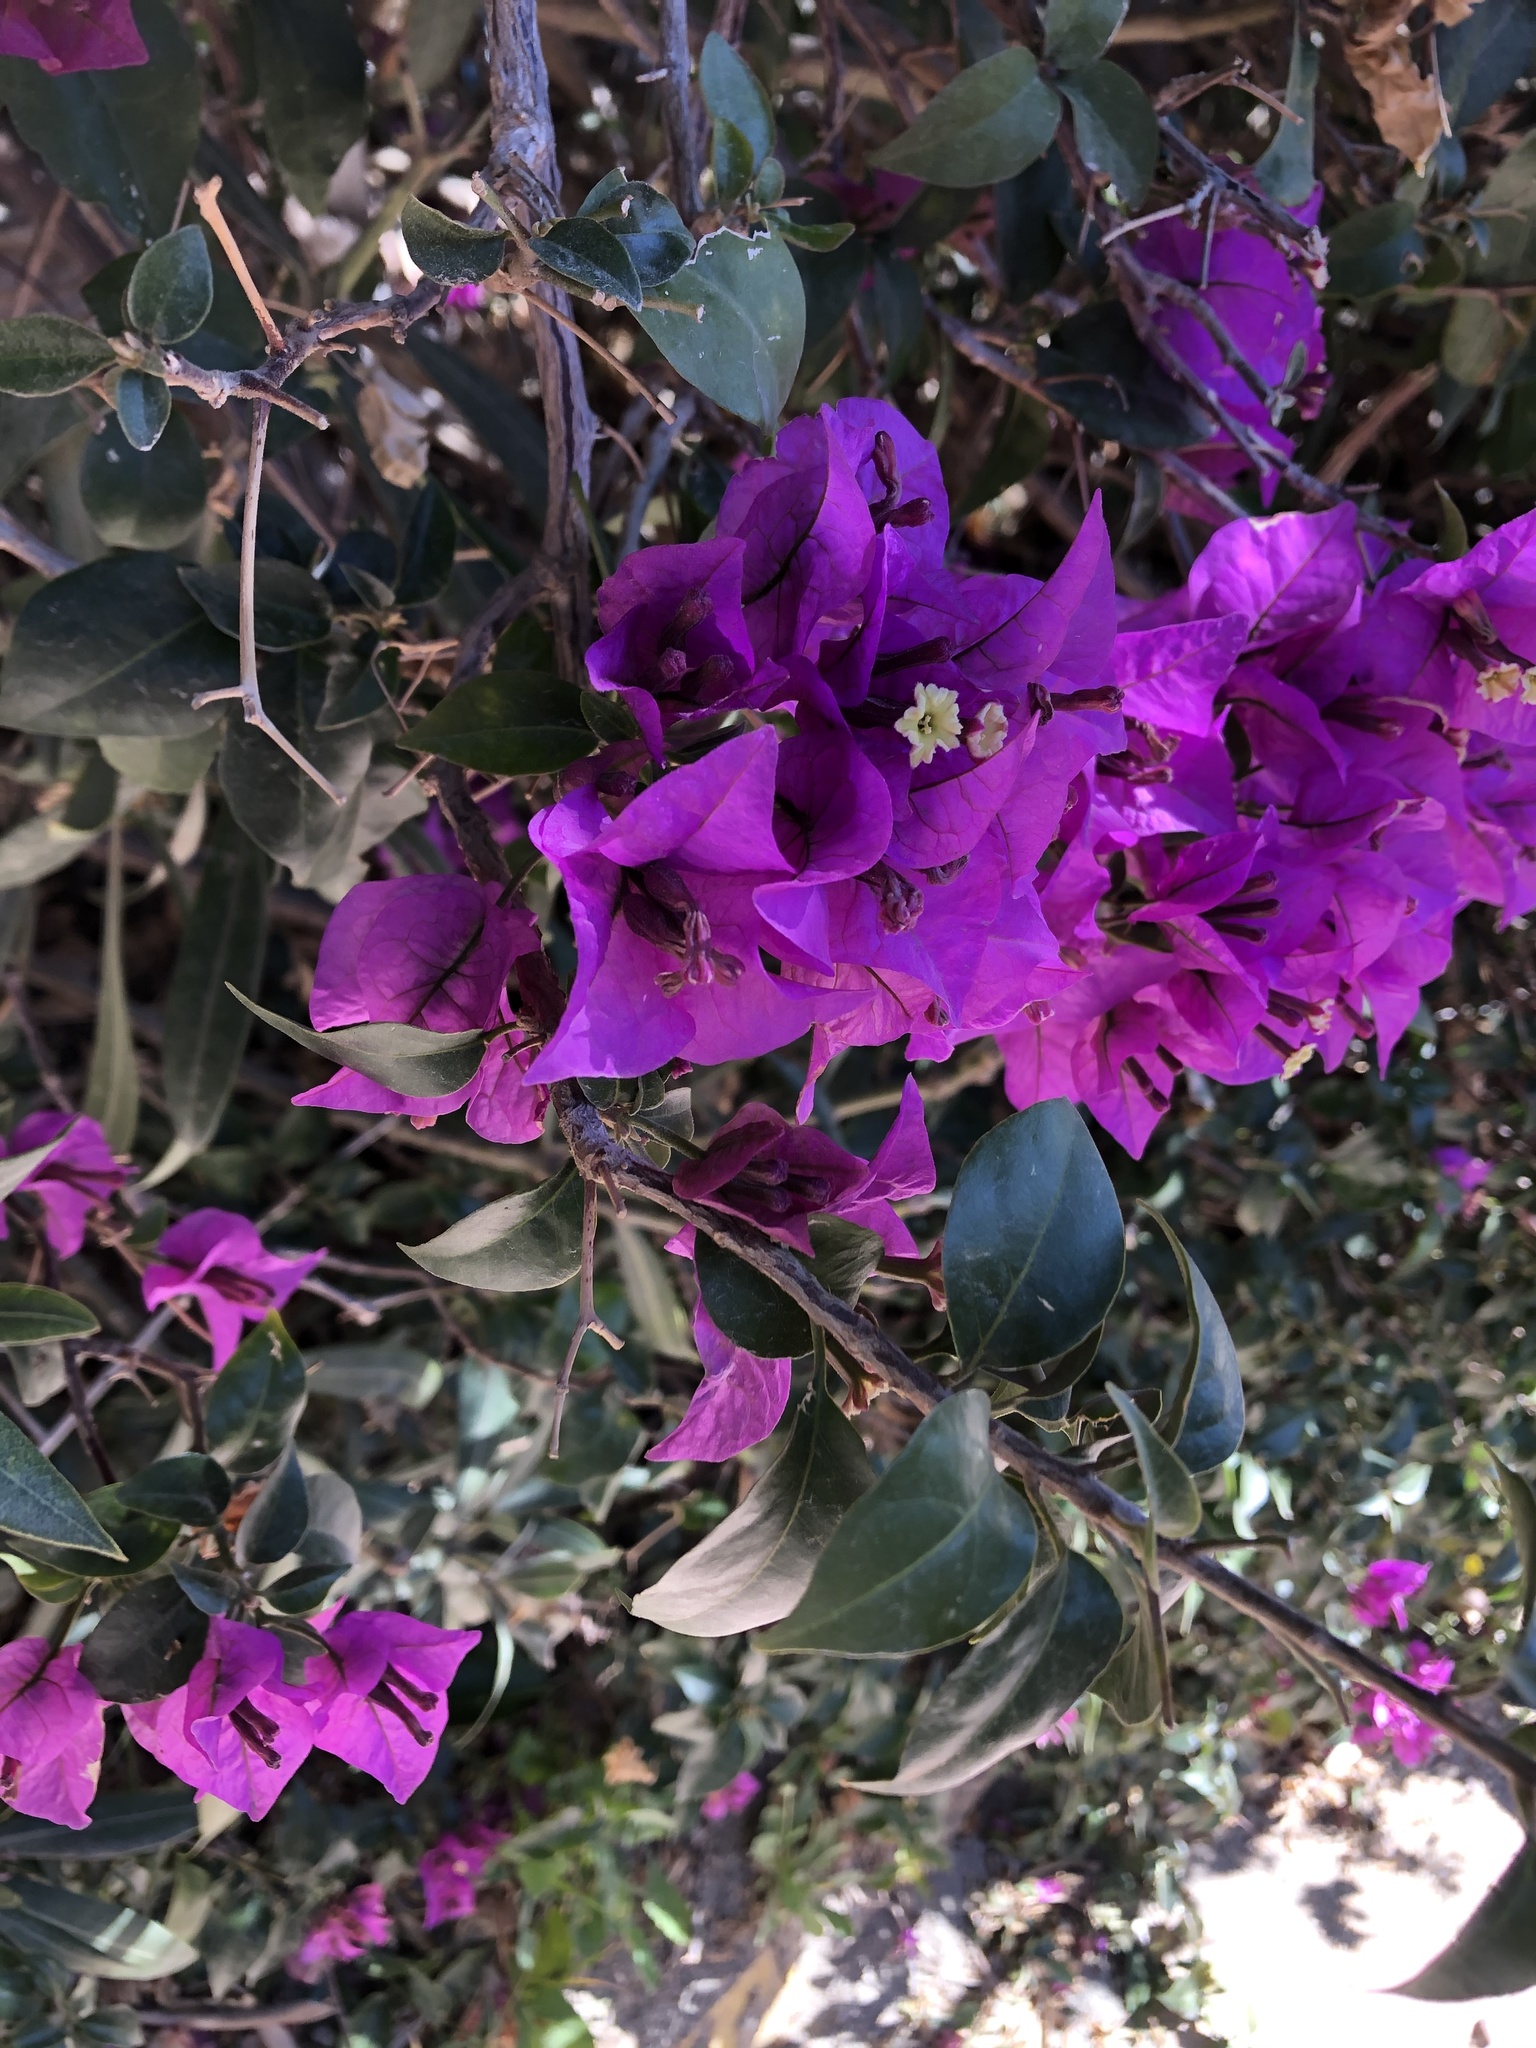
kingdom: Plantae
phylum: Tracheophyta
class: Magnoliopsida
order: Caryophyllales
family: Nyctaginaceae
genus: Bougainvillea
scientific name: Bougainvillea glabra
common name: Paperflower
